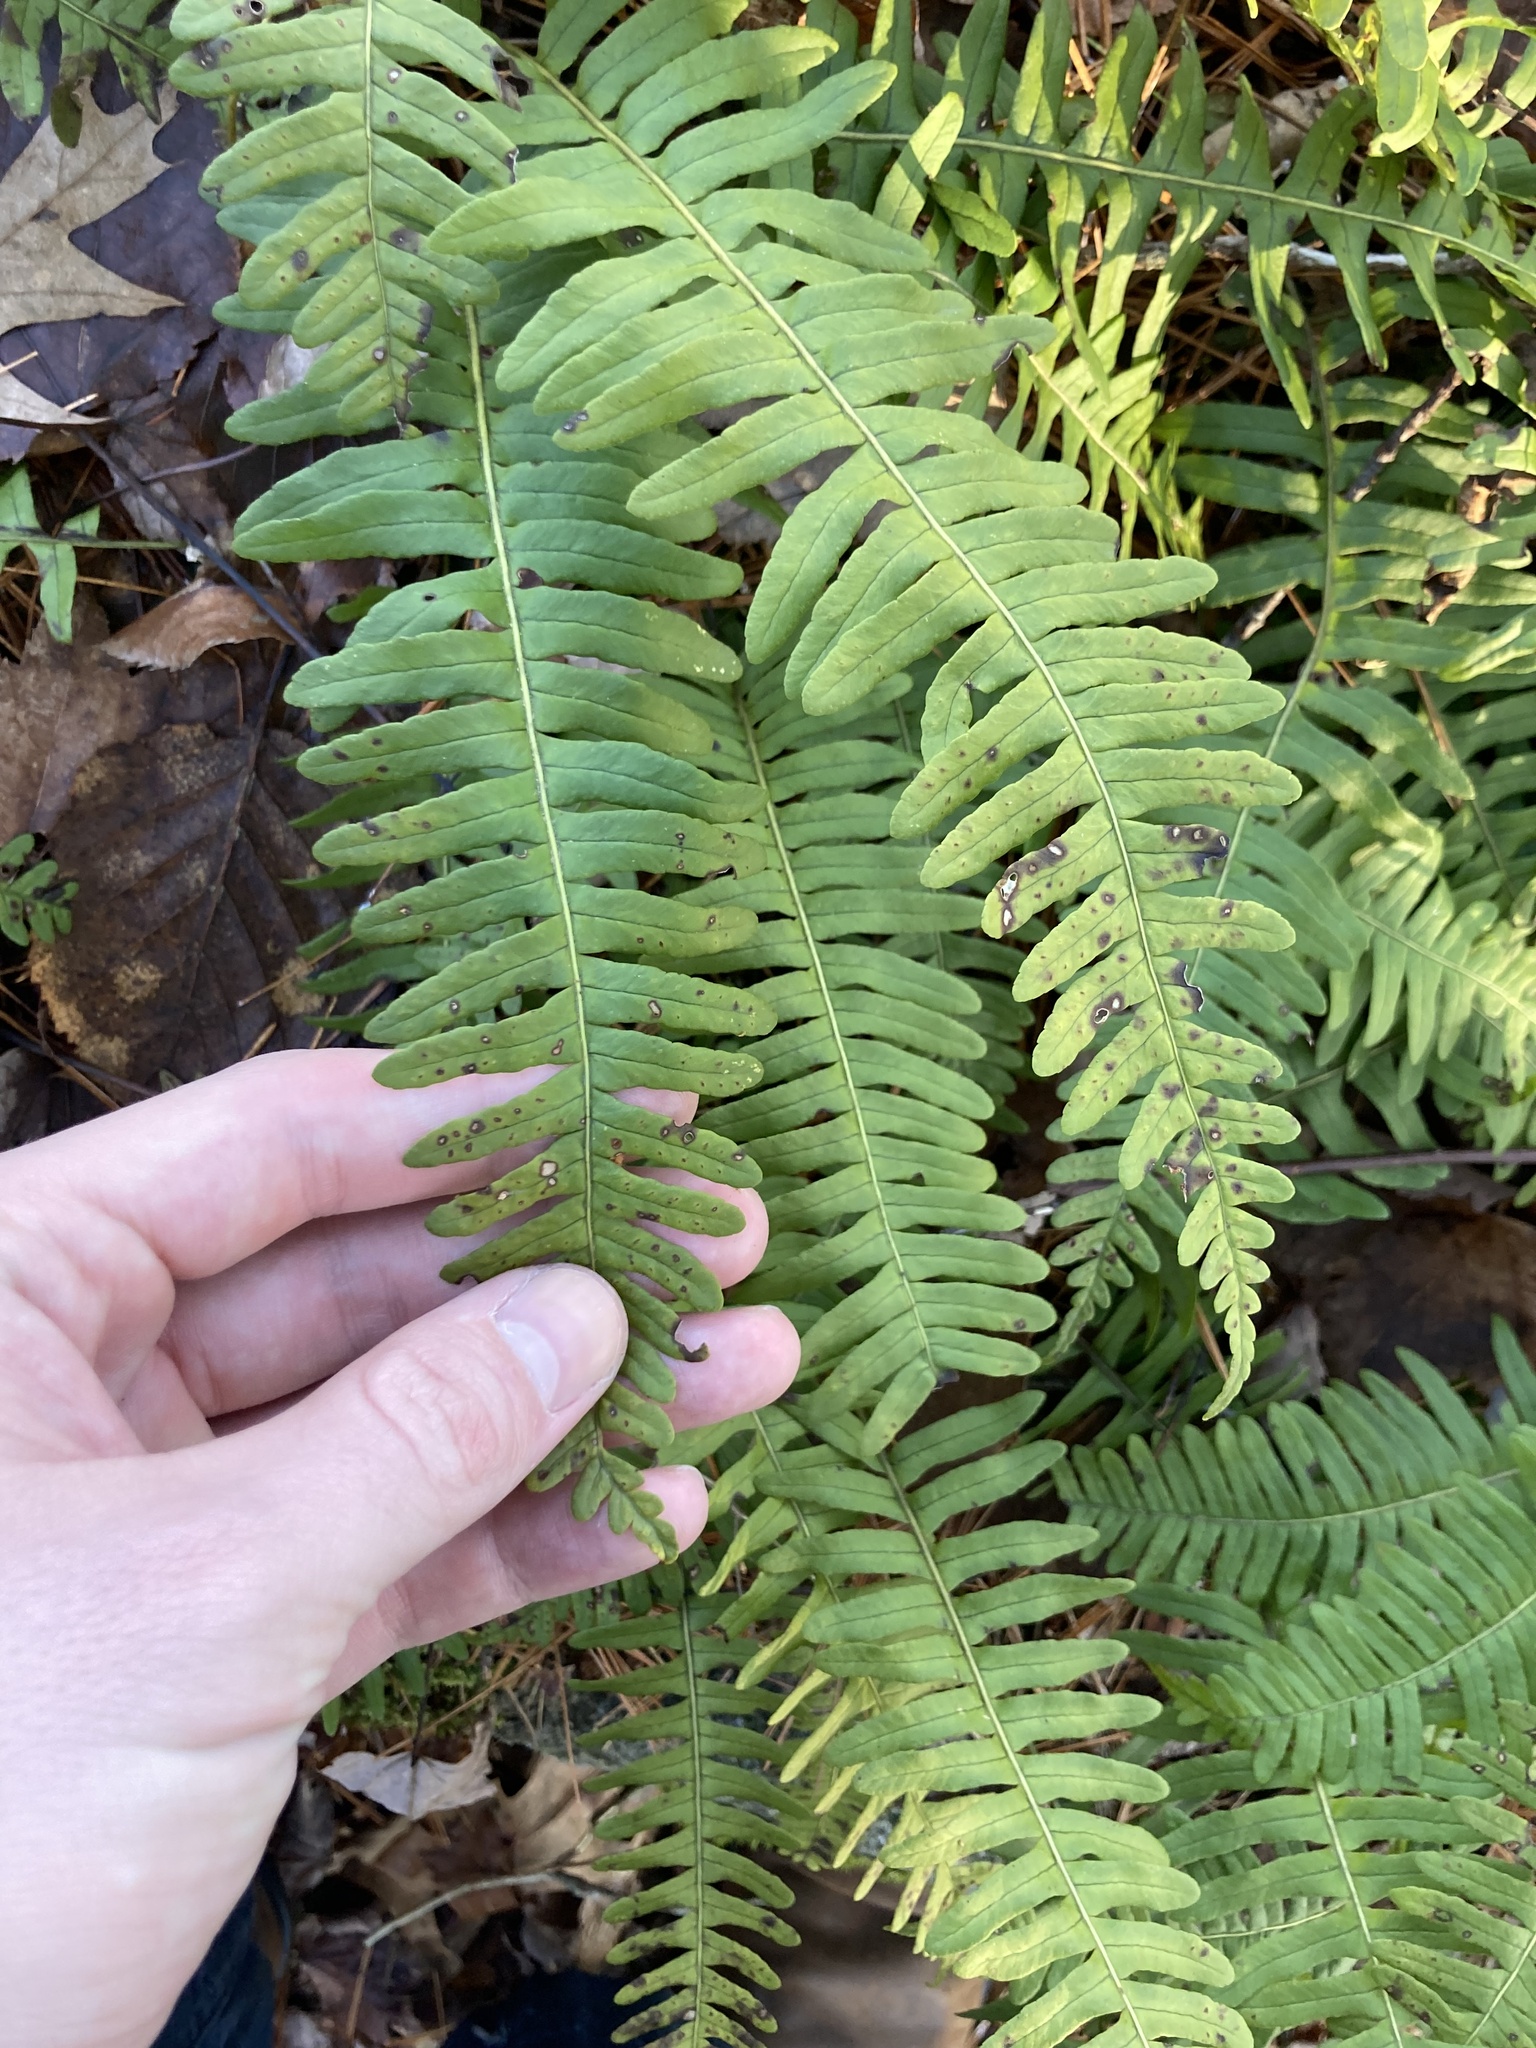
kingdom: Plantae
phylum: Tracheophyta
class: Polypodiopsida
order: Polypodiales
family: Polypodiaceae
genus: Polypodium
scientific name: Polypodium virginianum
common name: American wall fern
